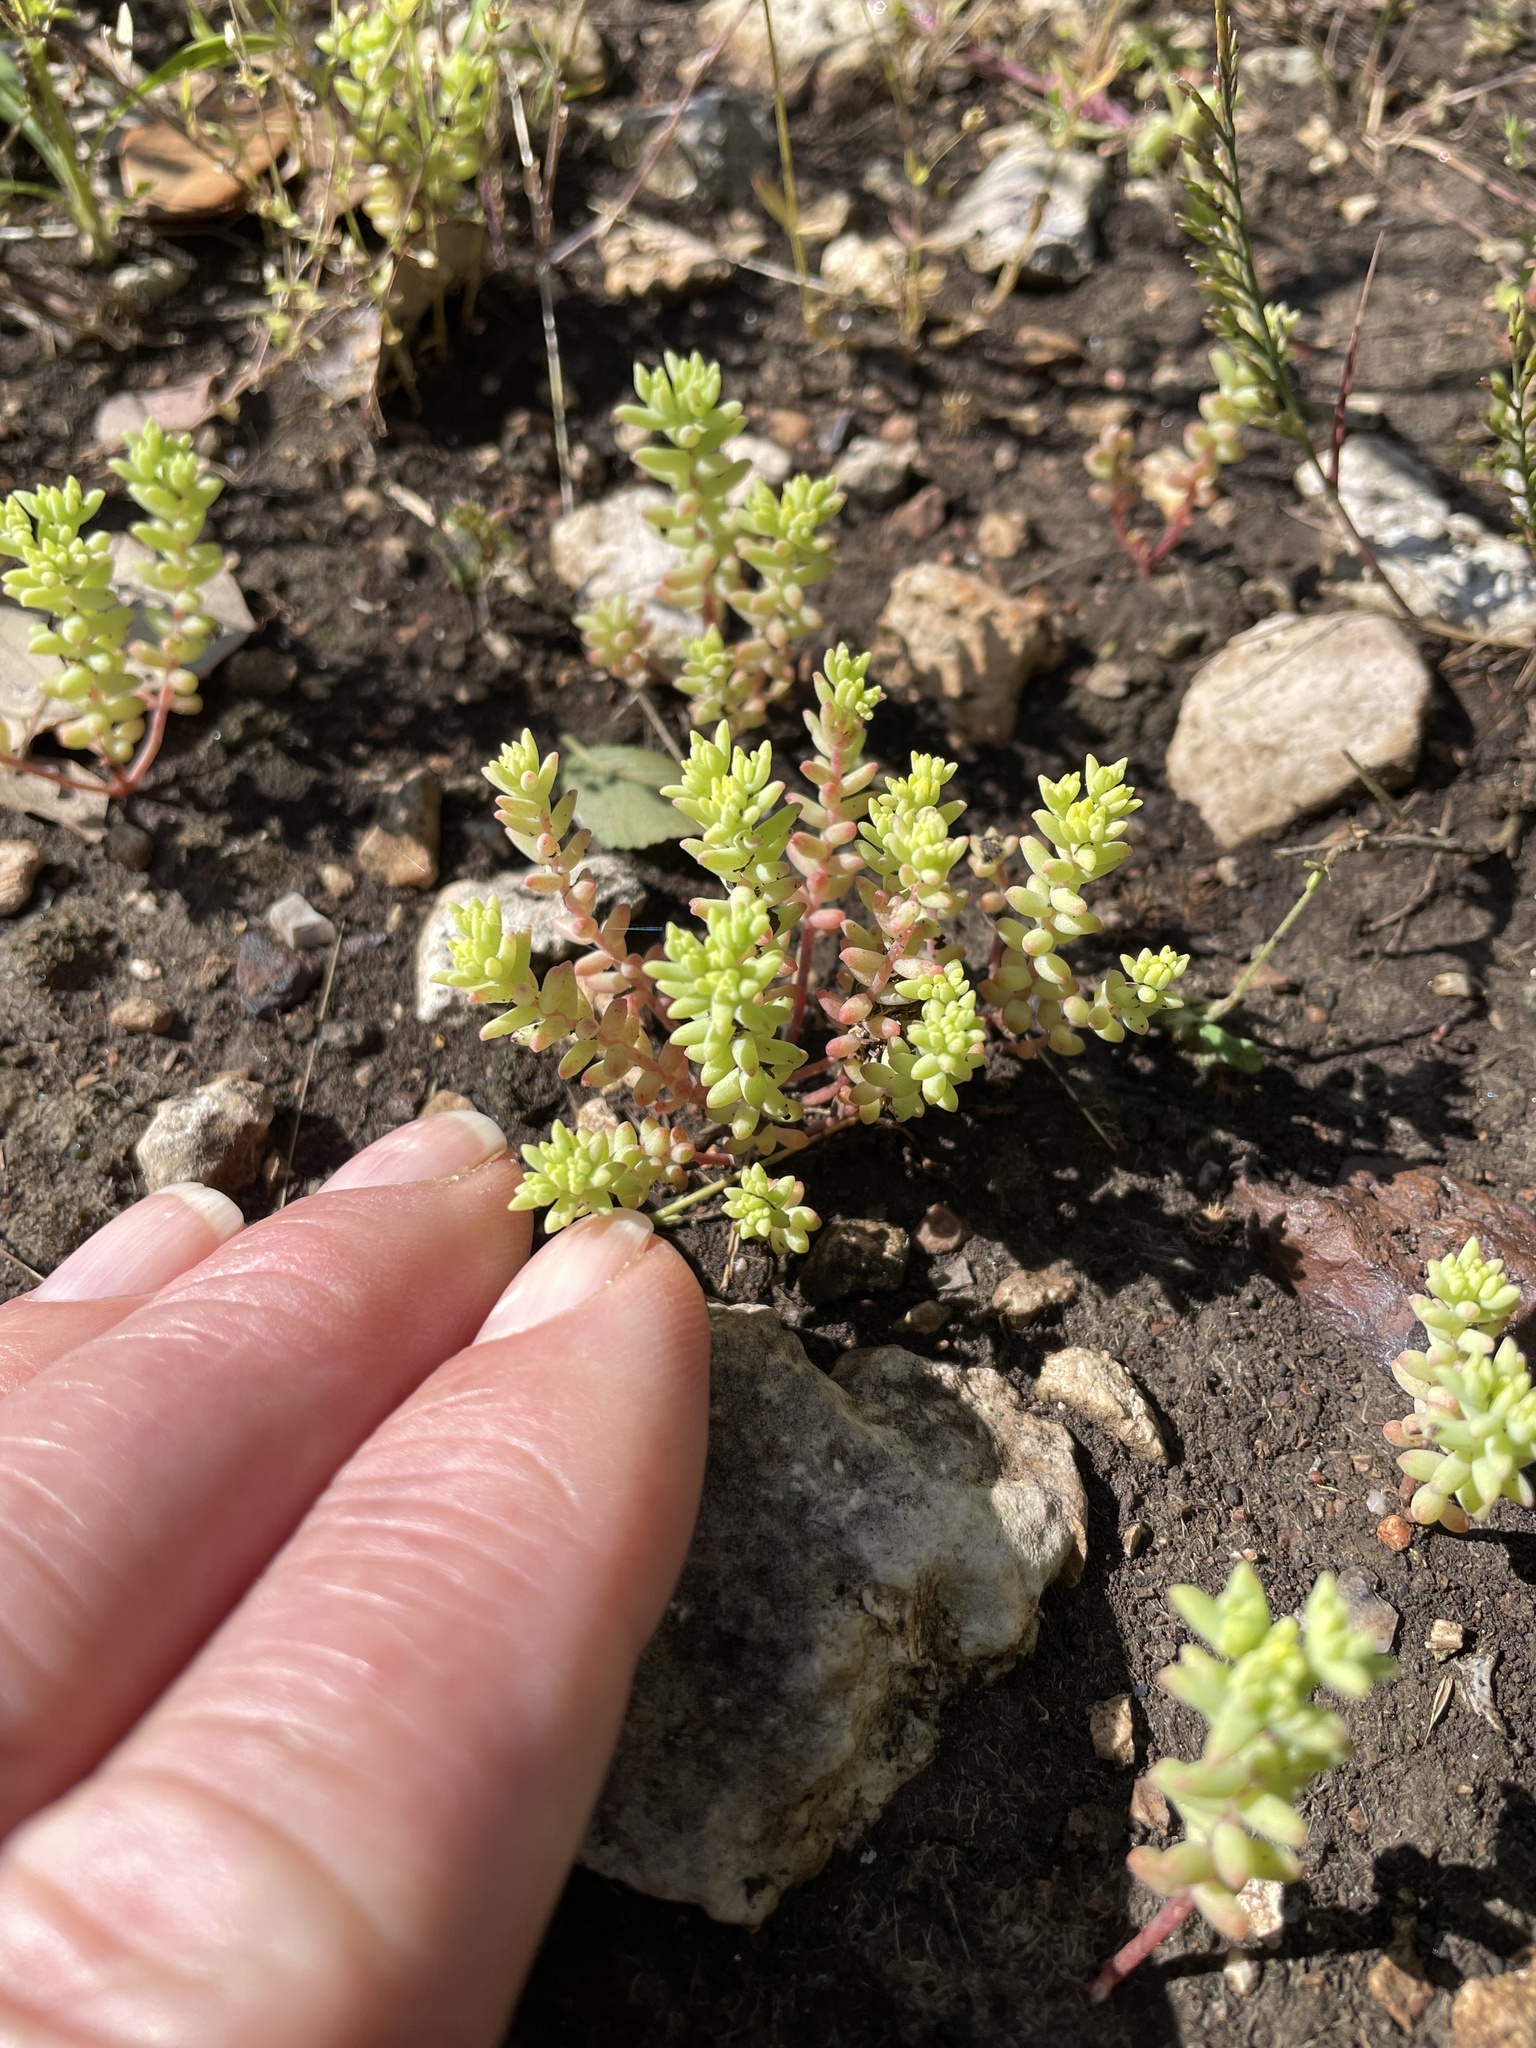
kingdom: Plantae
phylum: Tracheophyta
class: Magnoliopsida
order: Saxifragales
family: Crassulaceae
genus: Sedum
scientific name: Sedum nuttallii
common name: Yellow stonecrop
